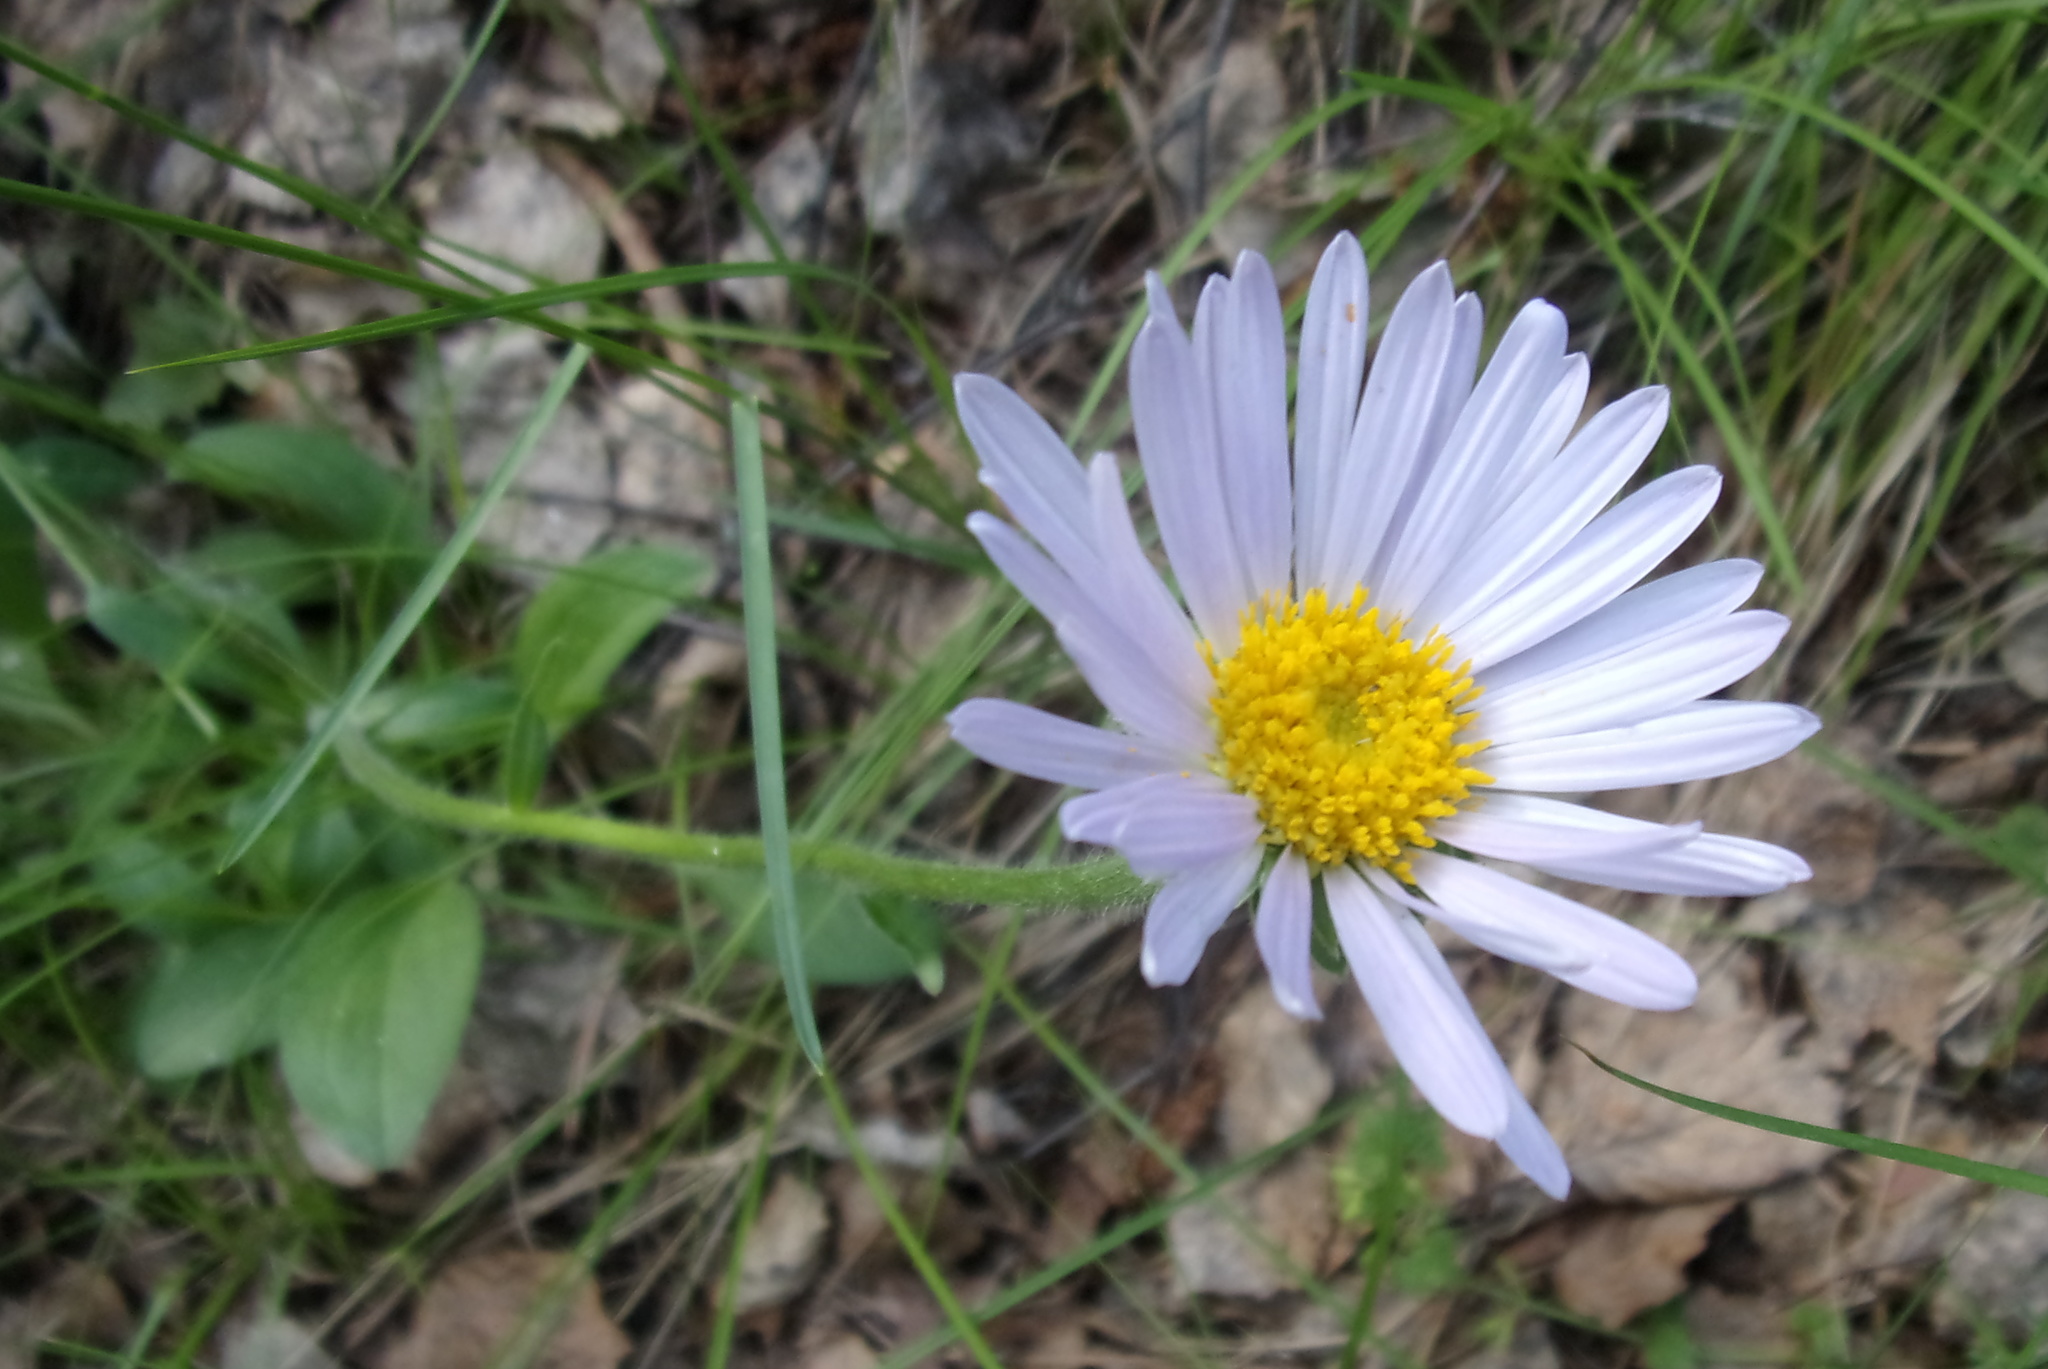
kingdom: Plantae
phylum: Tracheophyta
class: Magnoliopsida
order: Asterales
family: Asteraceae
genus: Aster
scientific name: Aster alpinus
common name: Alpine aster
